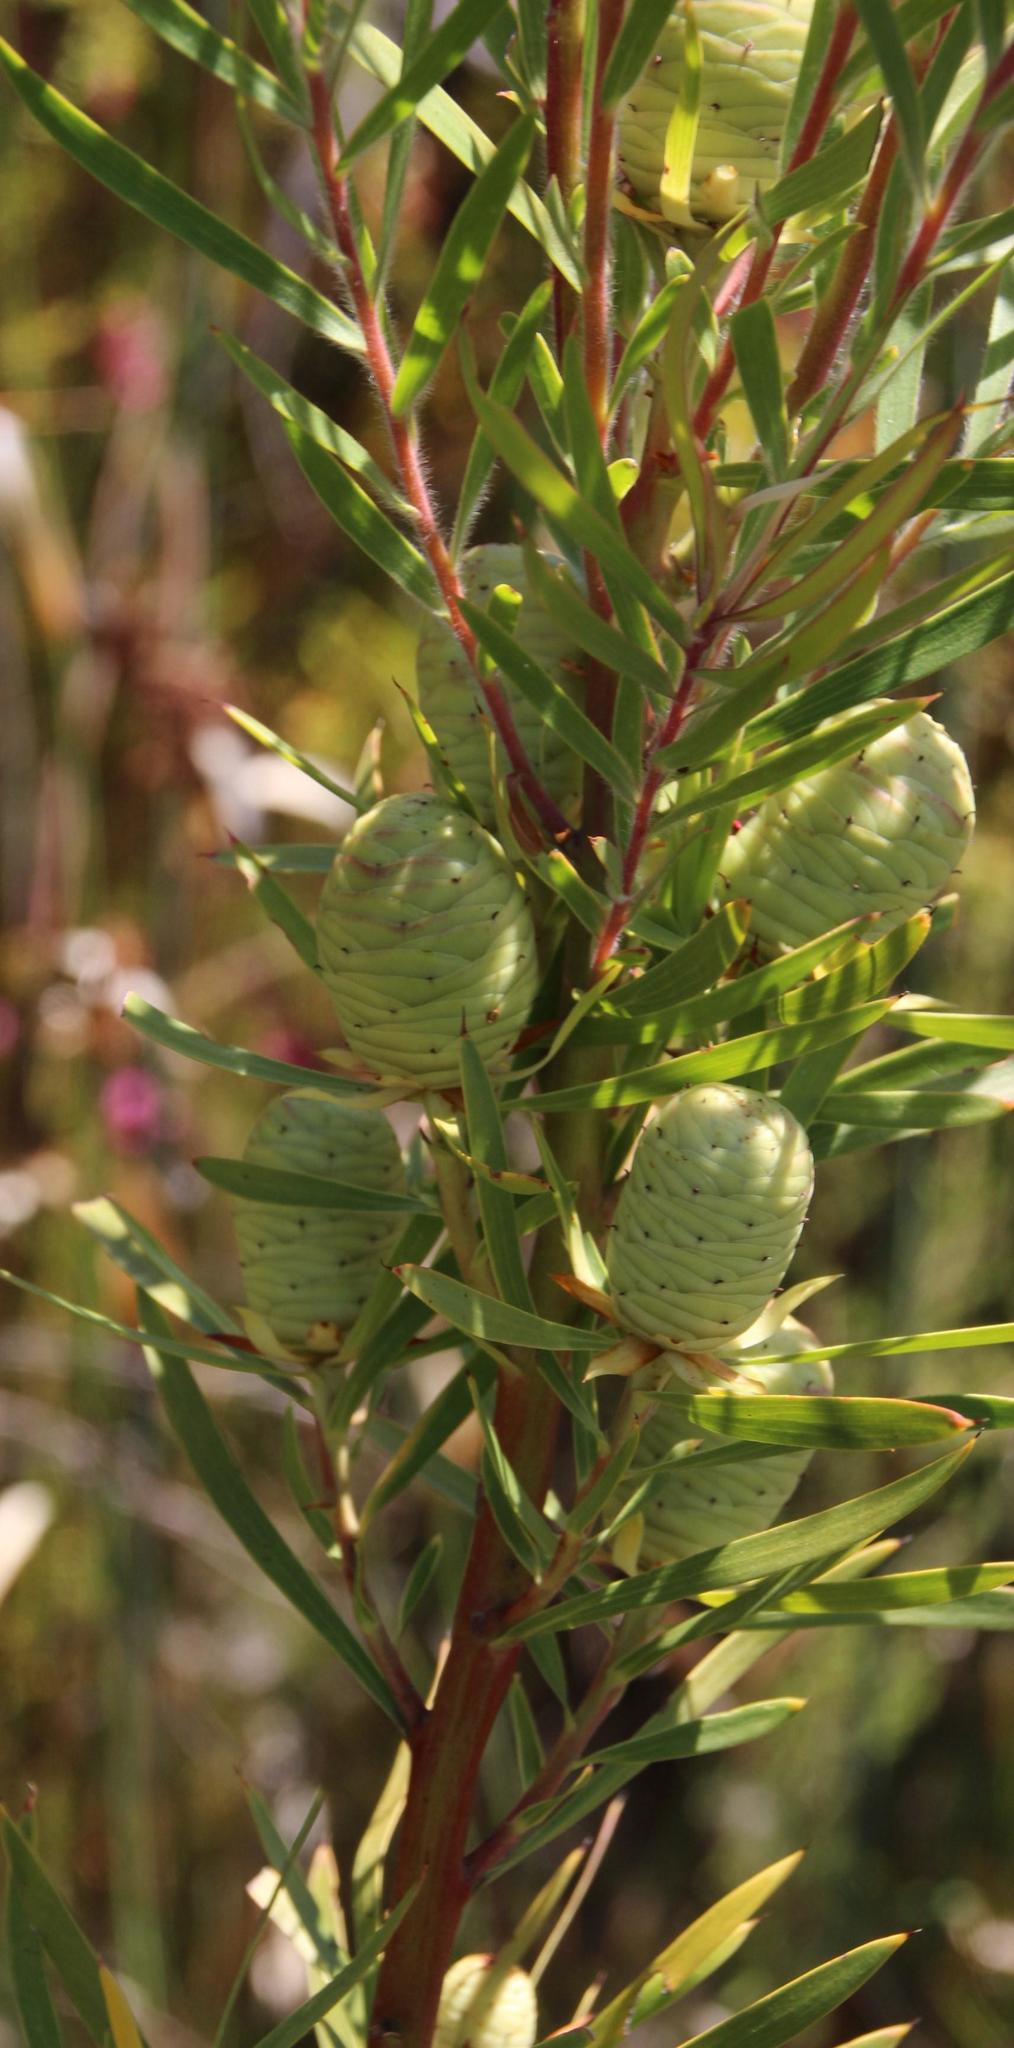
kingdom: Plantae
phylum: Tracheophyta
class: Magnoliopsida
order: Proteales
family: Proteaceae
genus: Leucadendron
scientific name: Leucadendron salicifolium
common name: Common stream conebush
